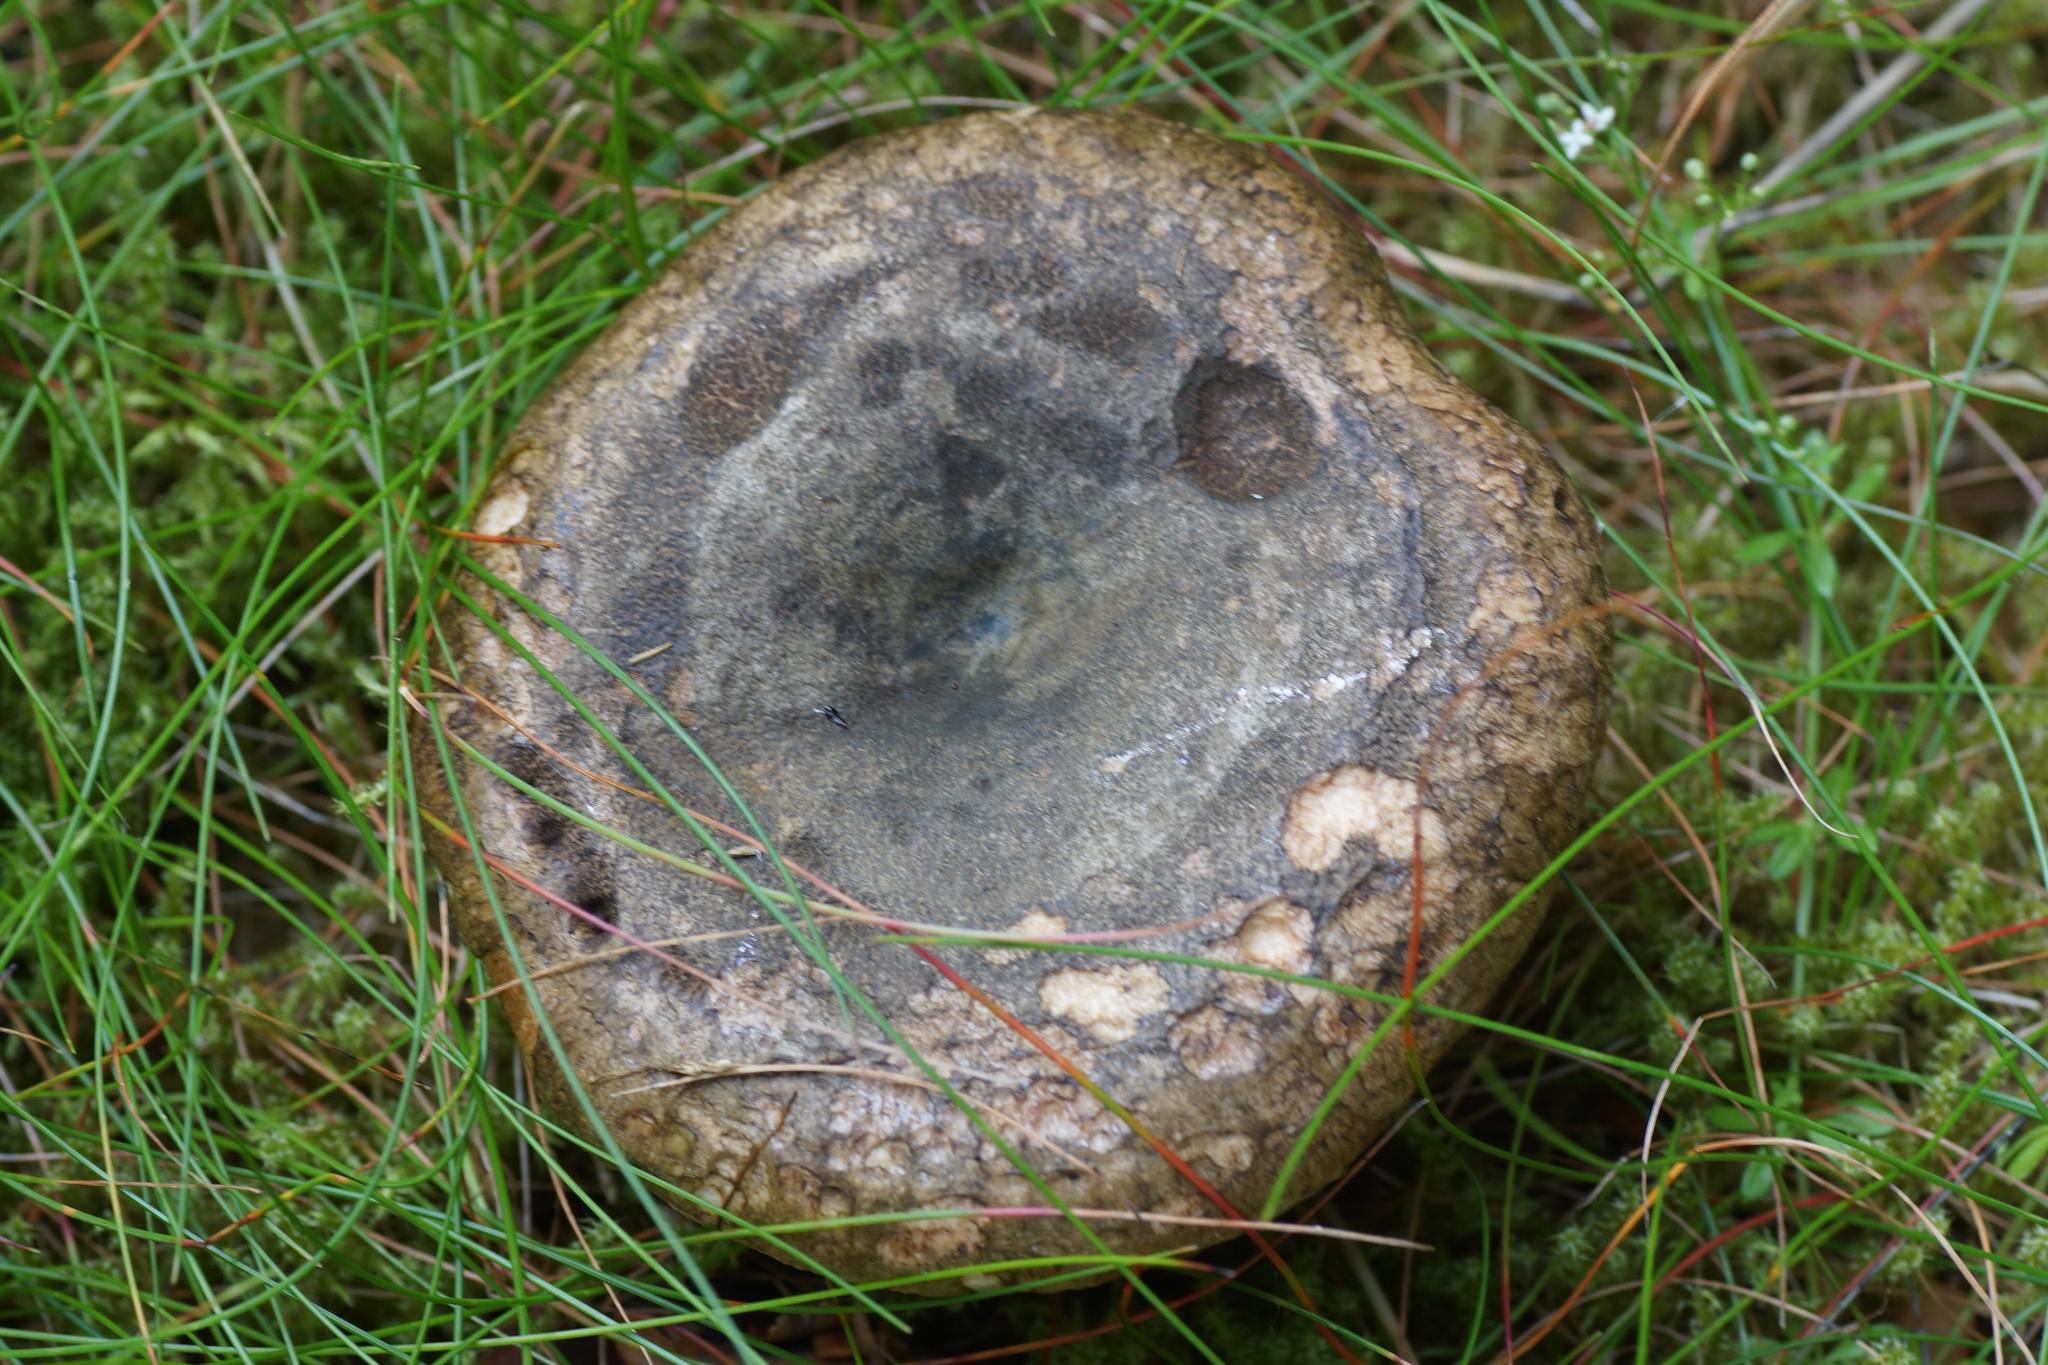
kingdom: Fungi
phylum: Basidiomycota
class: Agaricomycetes
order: Russulales
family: Russulaceae
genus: Lactarius
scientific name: Lactarius turpis
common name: Ugly milk-cap
